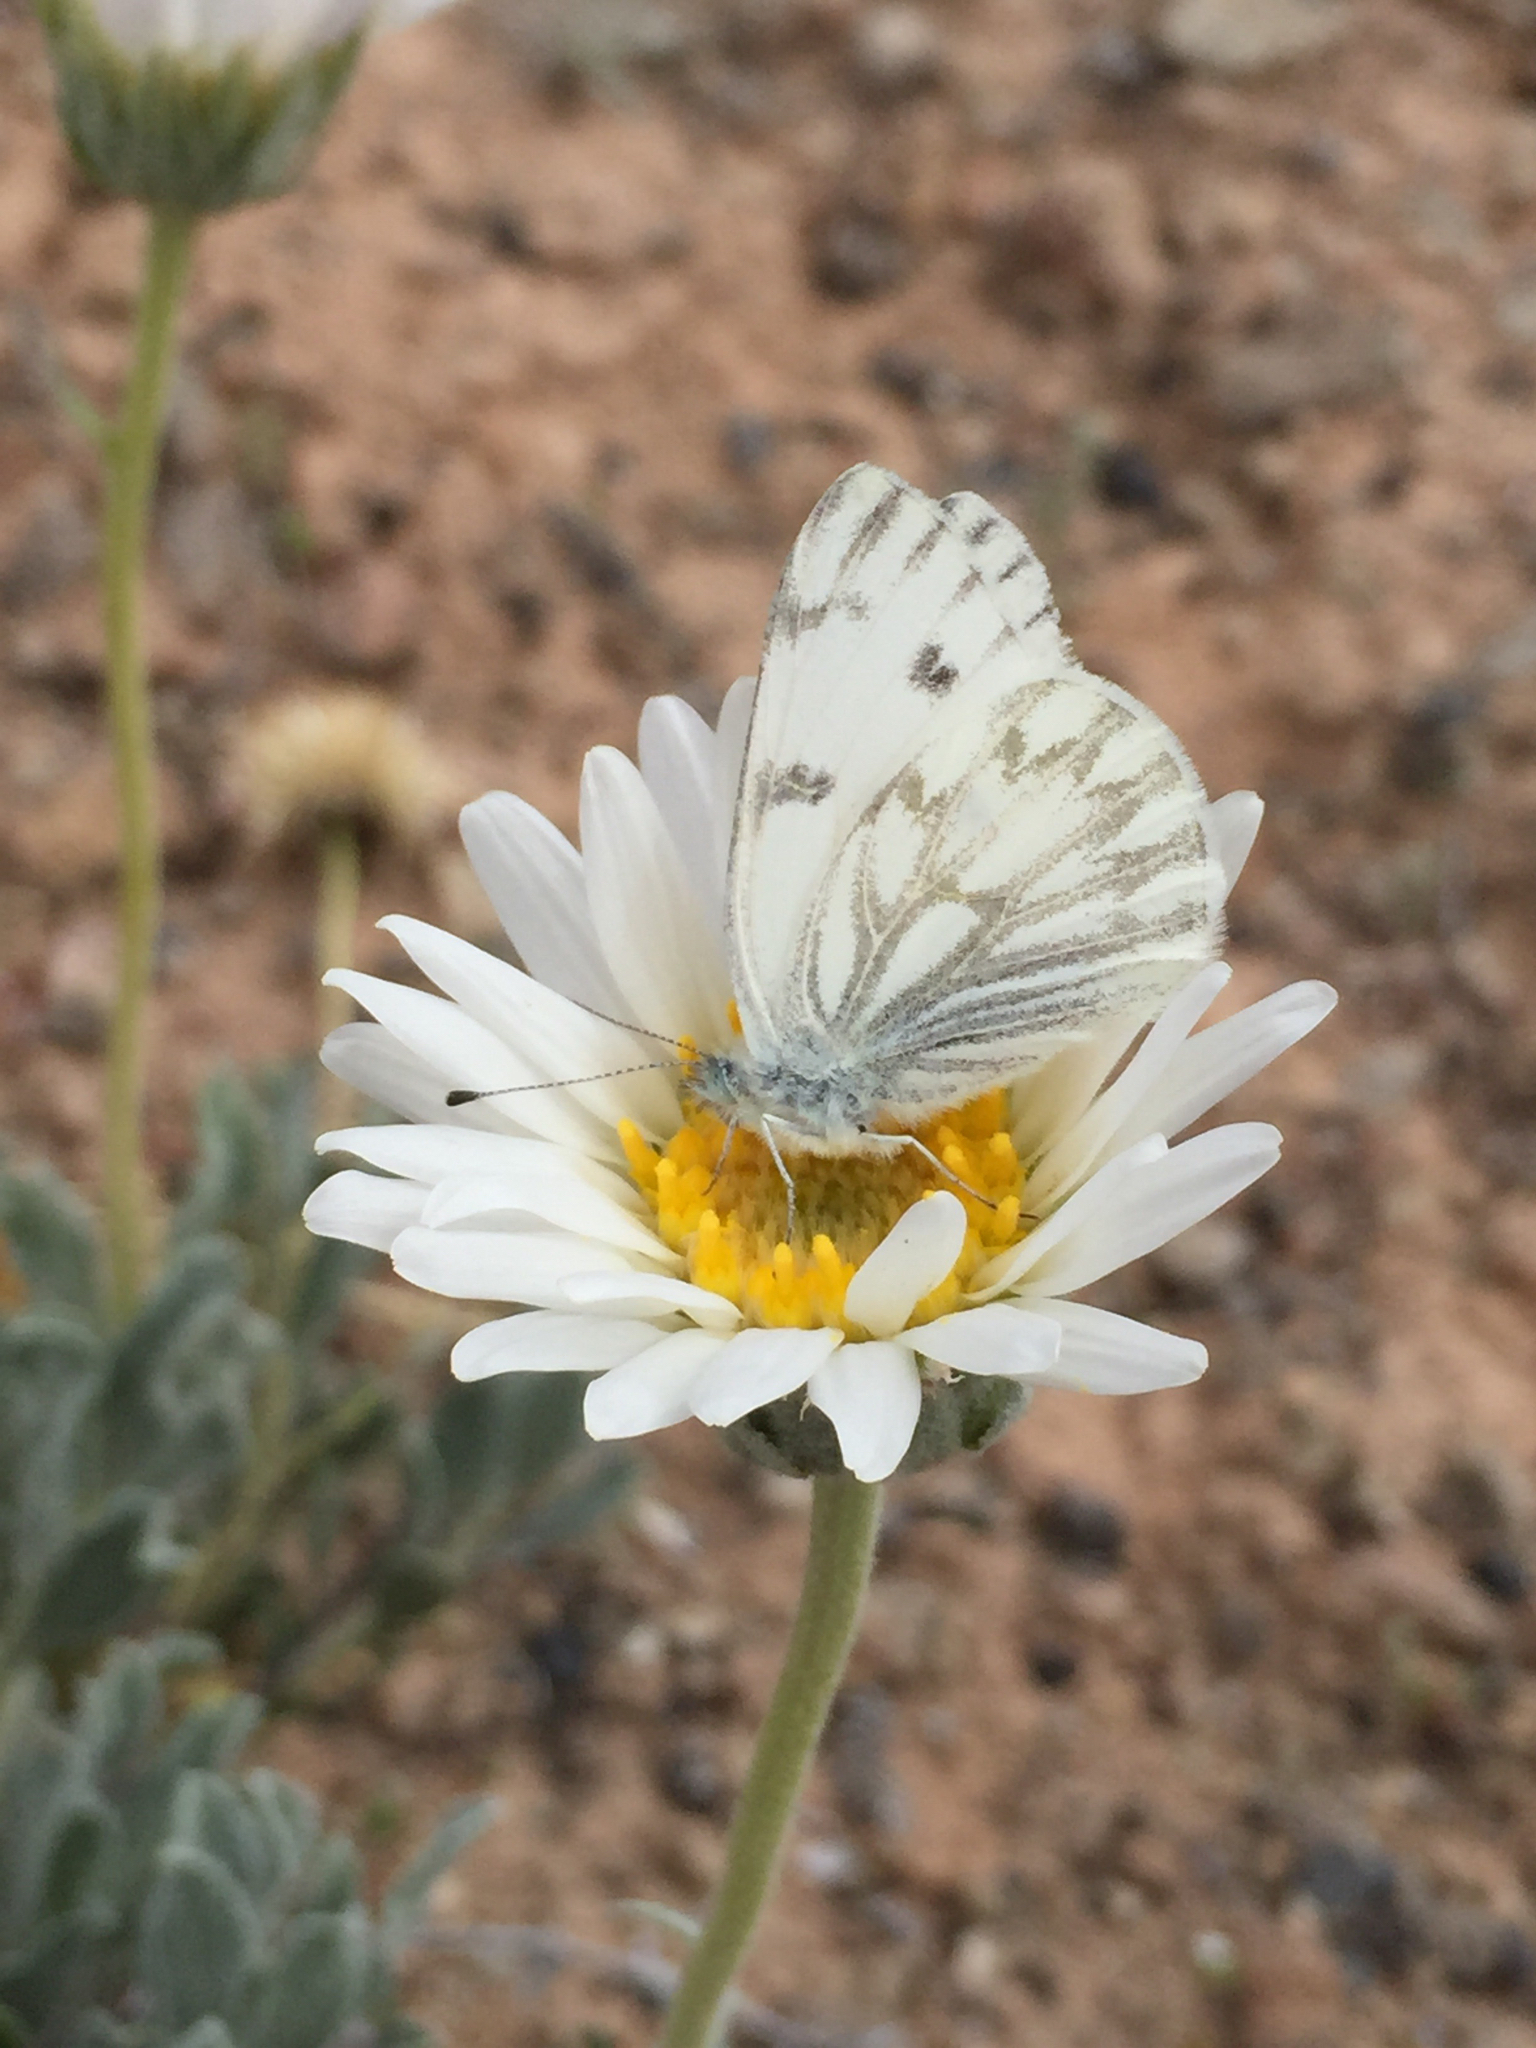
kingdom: Animalia
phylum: Arthropoda
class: Insecta
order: Lepidoptera
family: Pieridae
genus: Pontia
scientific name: Pontia protodice
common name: Checkered white
